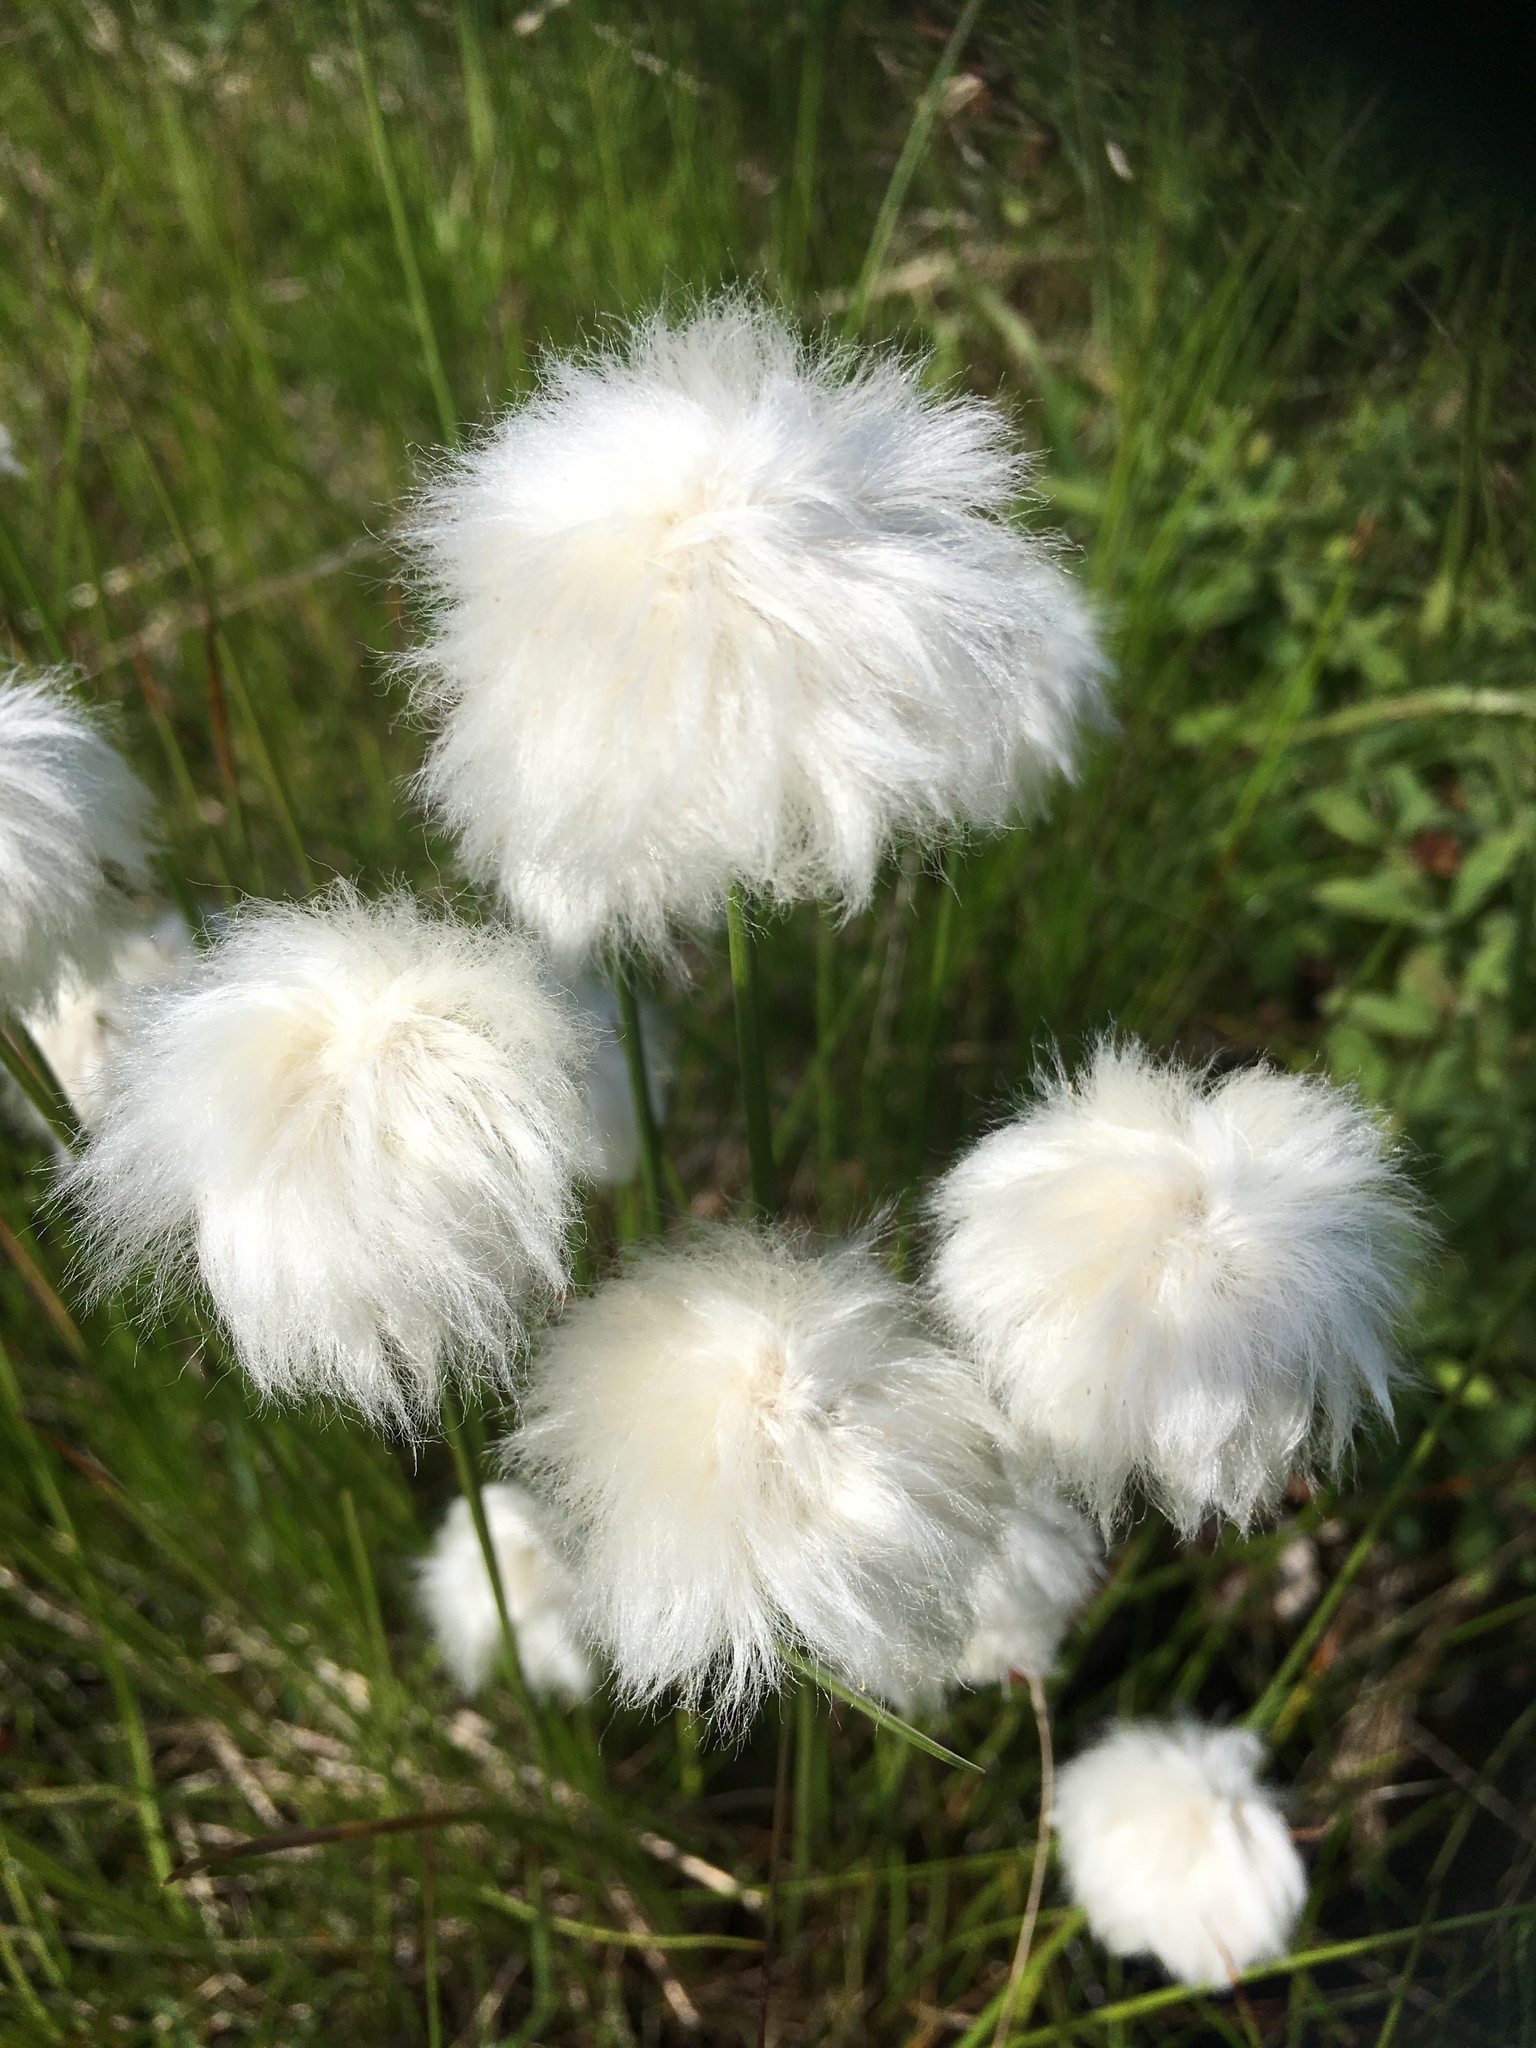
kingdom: Plantae
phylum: Tracheophyta
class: Liliopsida
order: Poales
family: Cyperaceae
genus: Eriophorum
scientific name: Eriophorum scheuchzeri
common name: Scheuchzer's cottongrass
